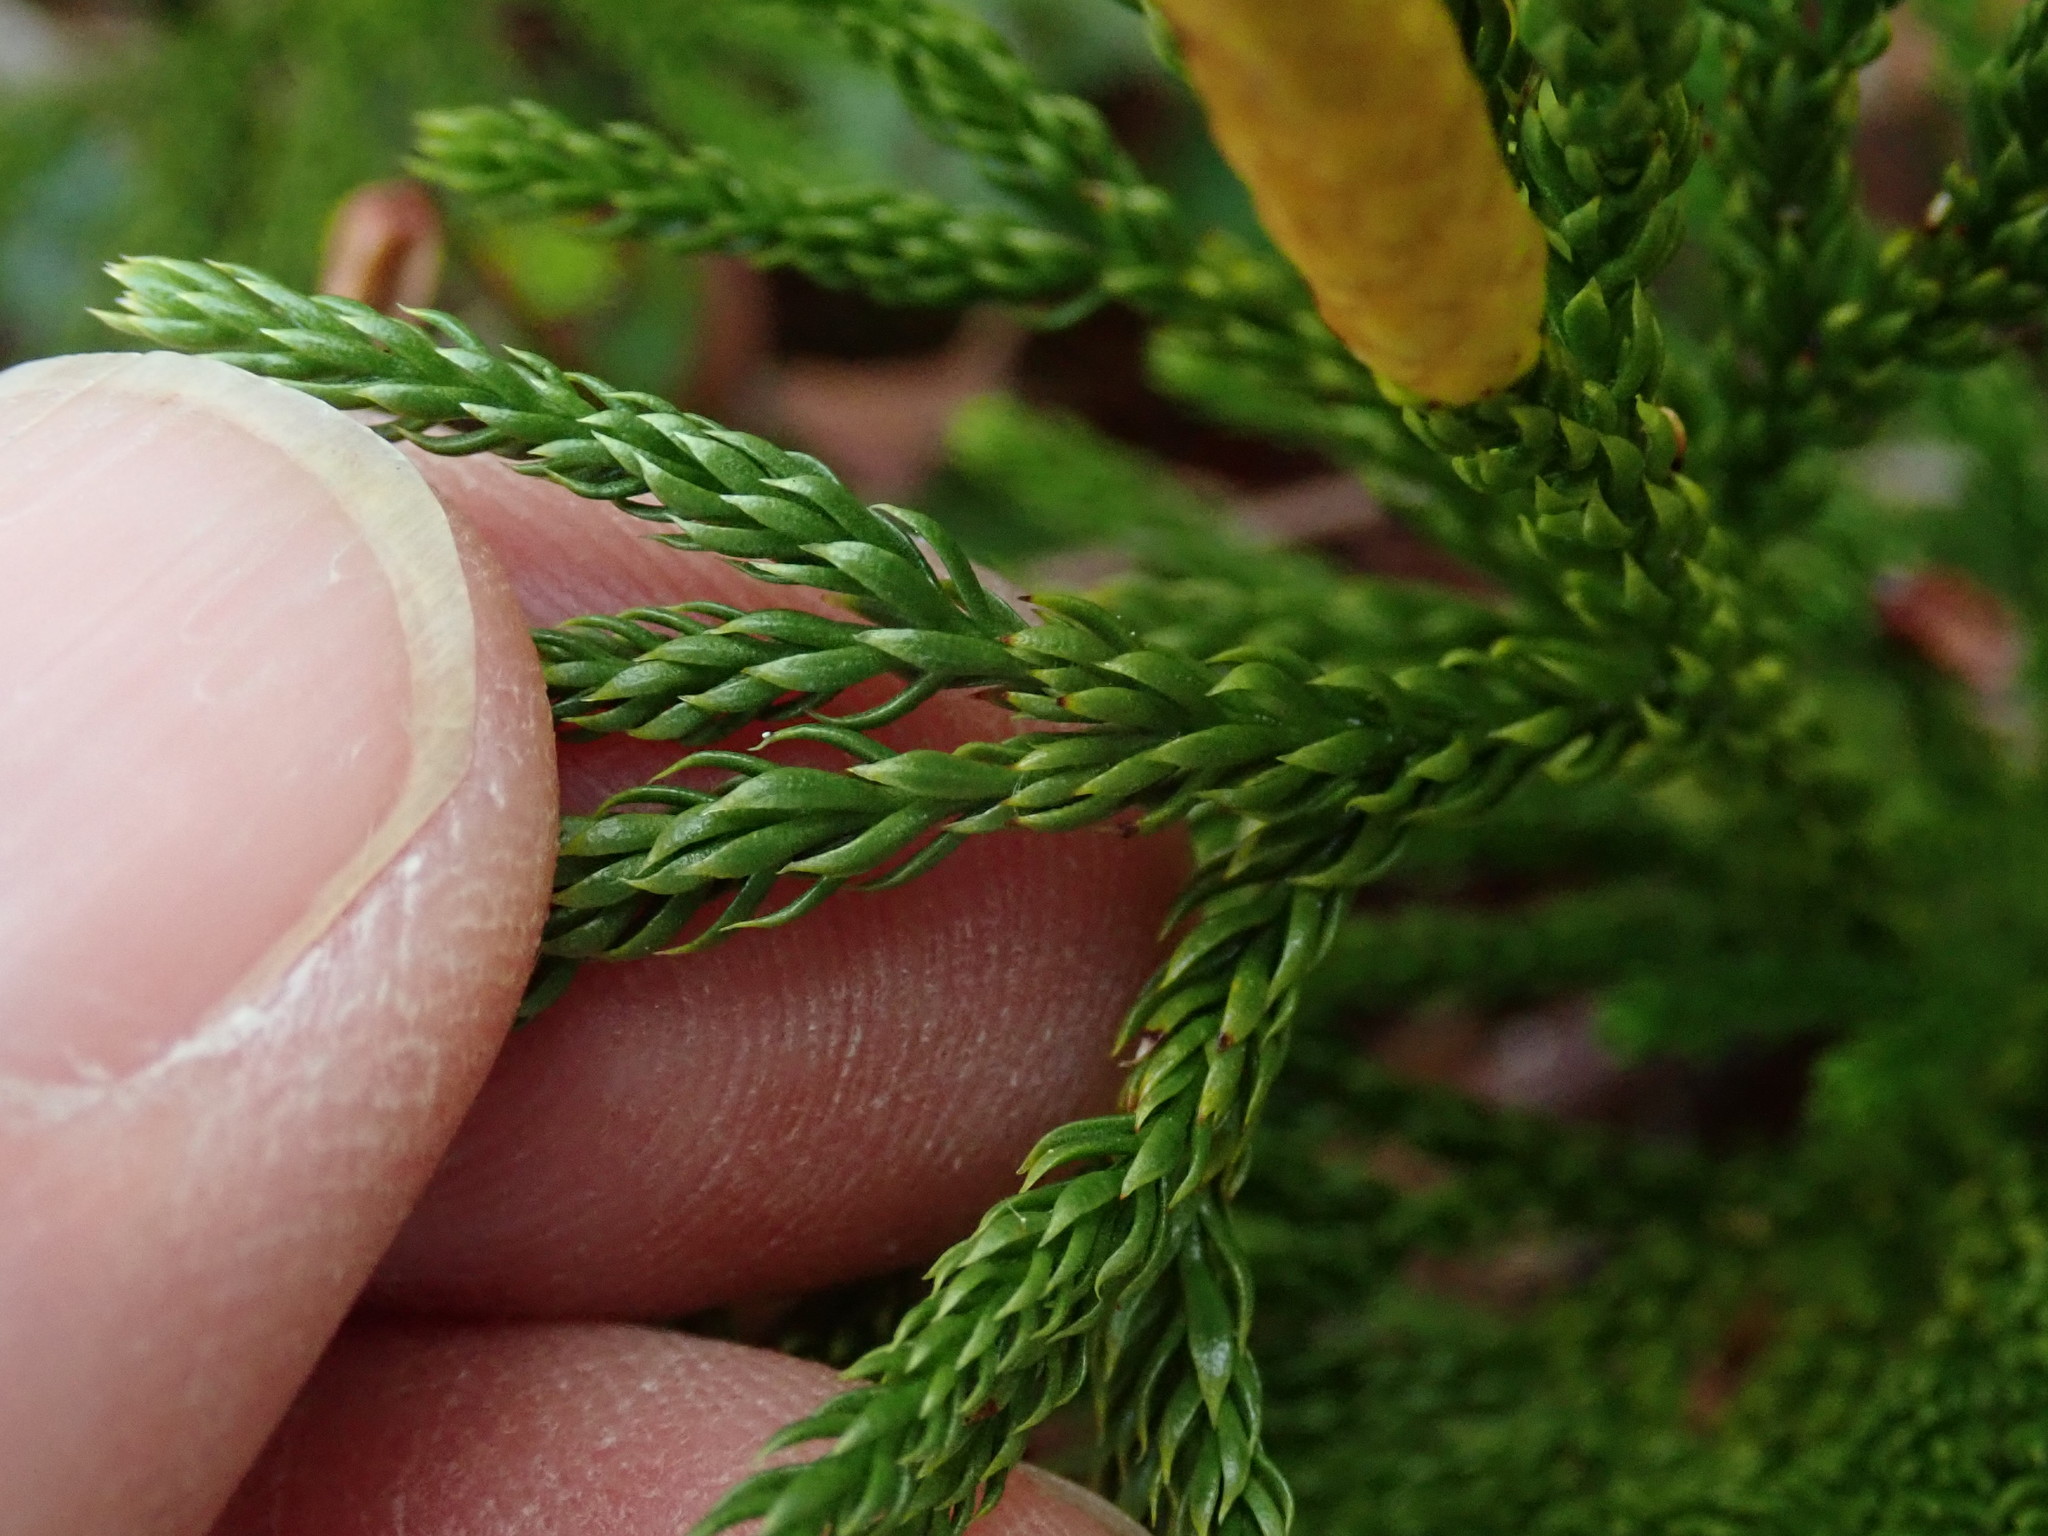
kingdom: Plantae
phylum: Tracheophyta
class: Lycopodiopsida
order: Lycopodiales
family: Lycopodiaceae
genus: Dendrolycopodium
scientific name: Dendrolycopodium hickeyi
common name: Hickey's clubmoss
